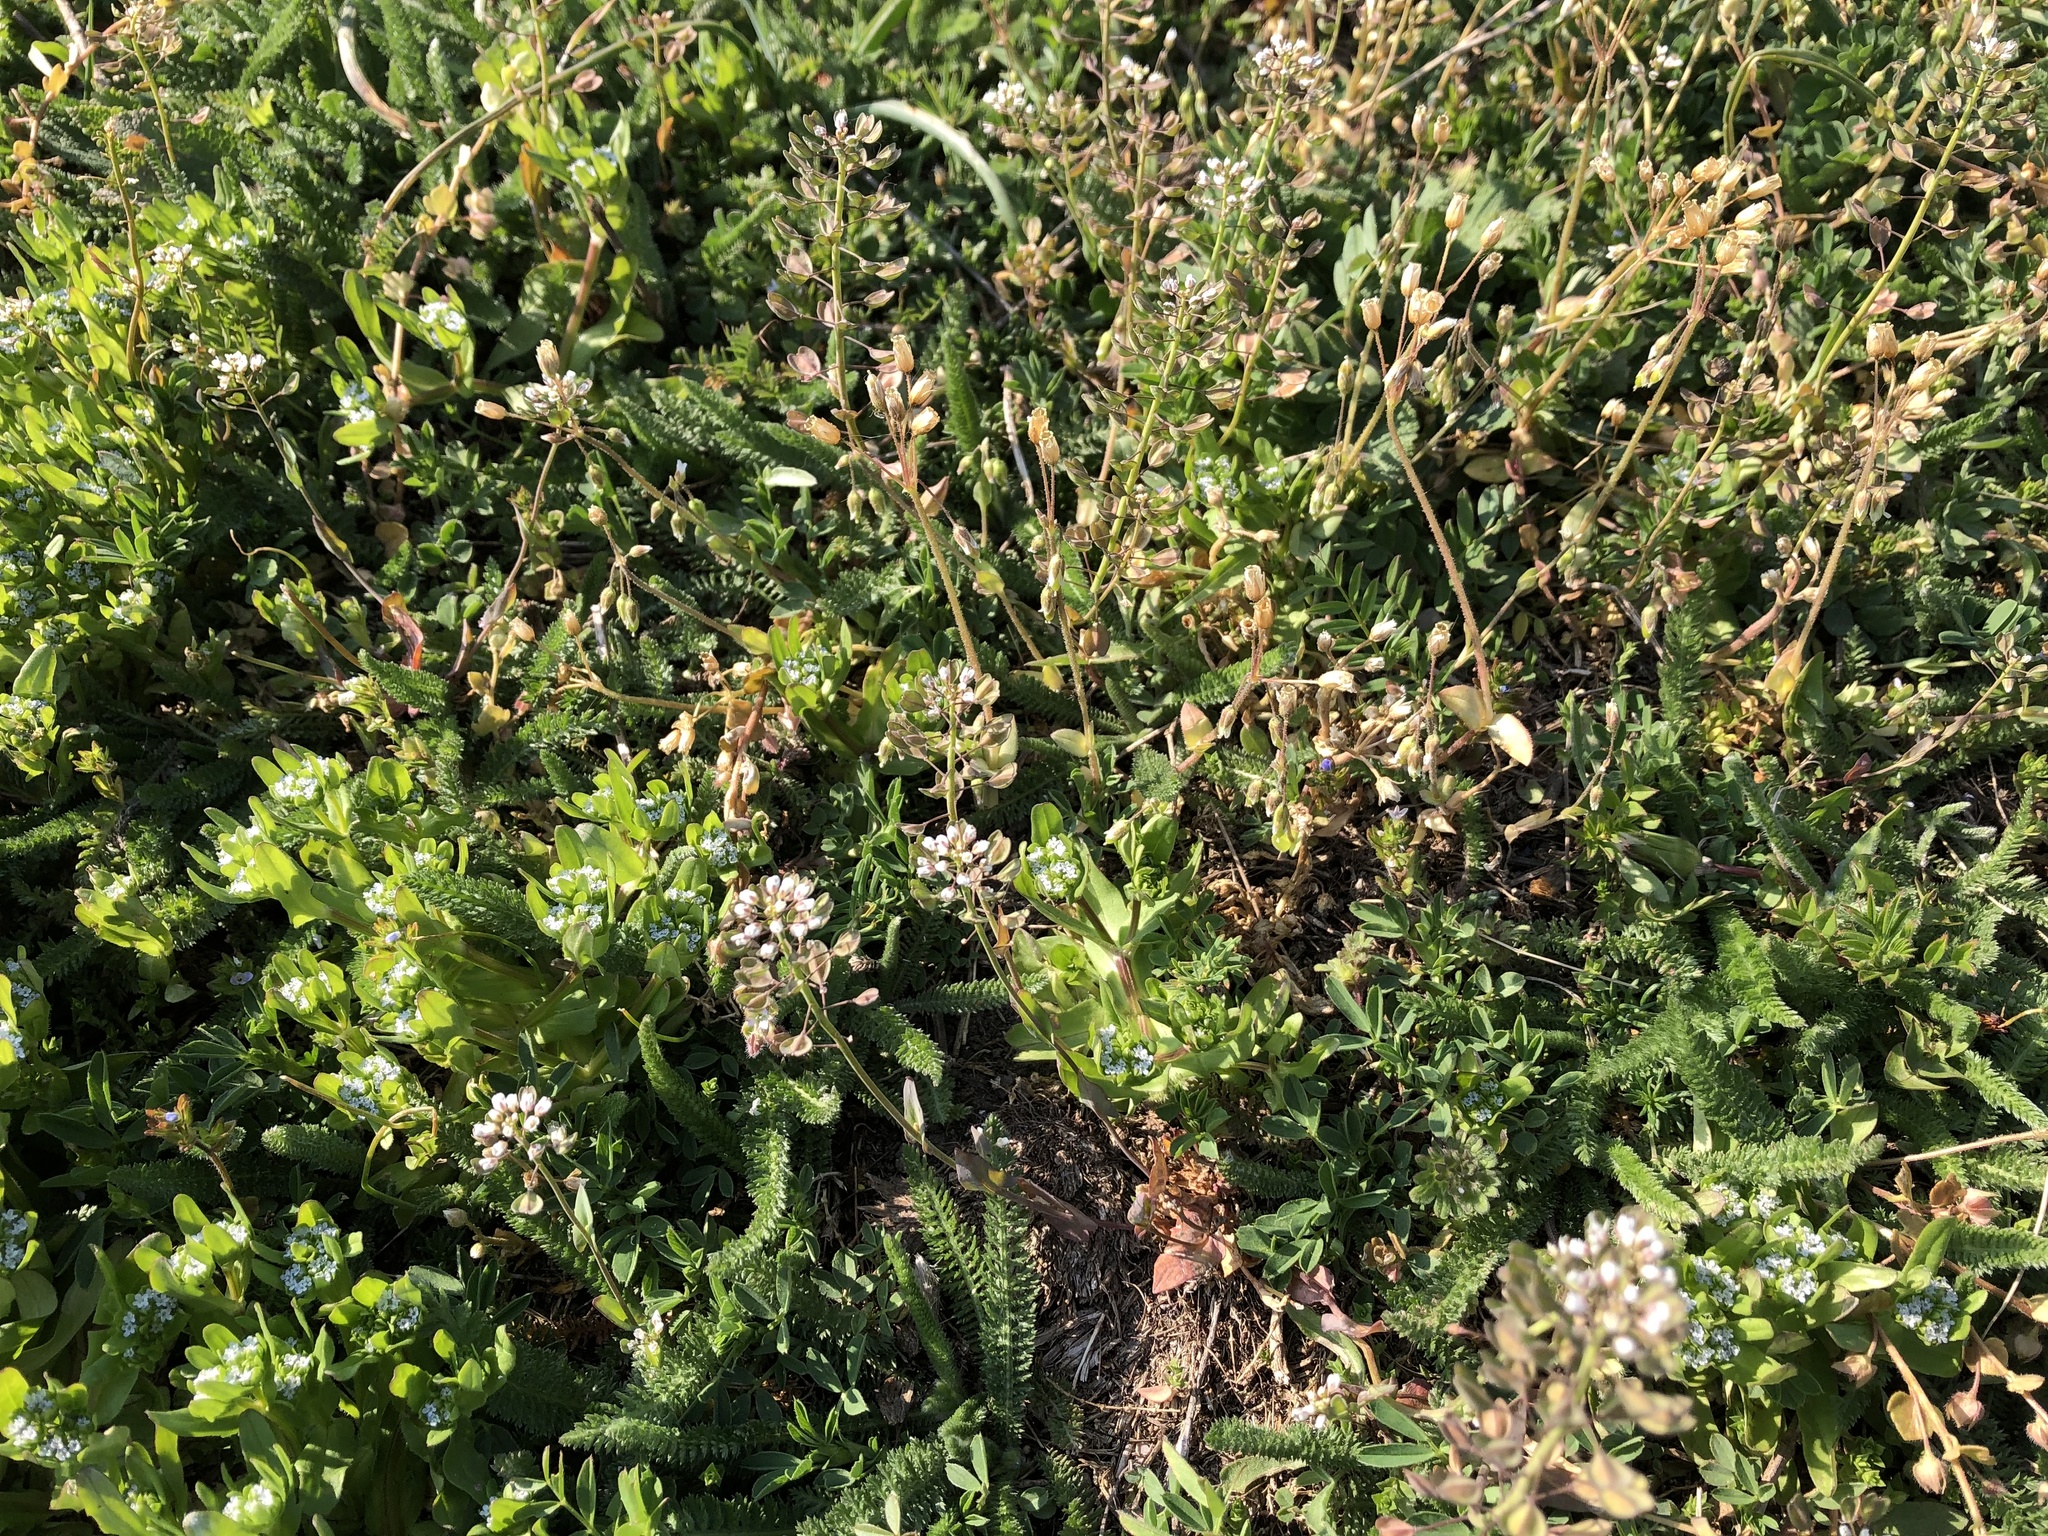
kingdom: Plantae
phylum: Tracheophyta
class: Magnoliopsida
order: Brassicales
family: Brassicaceae
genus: Noccaea
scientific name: Noccaea perfoliata
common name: Perfoliate pennycress
